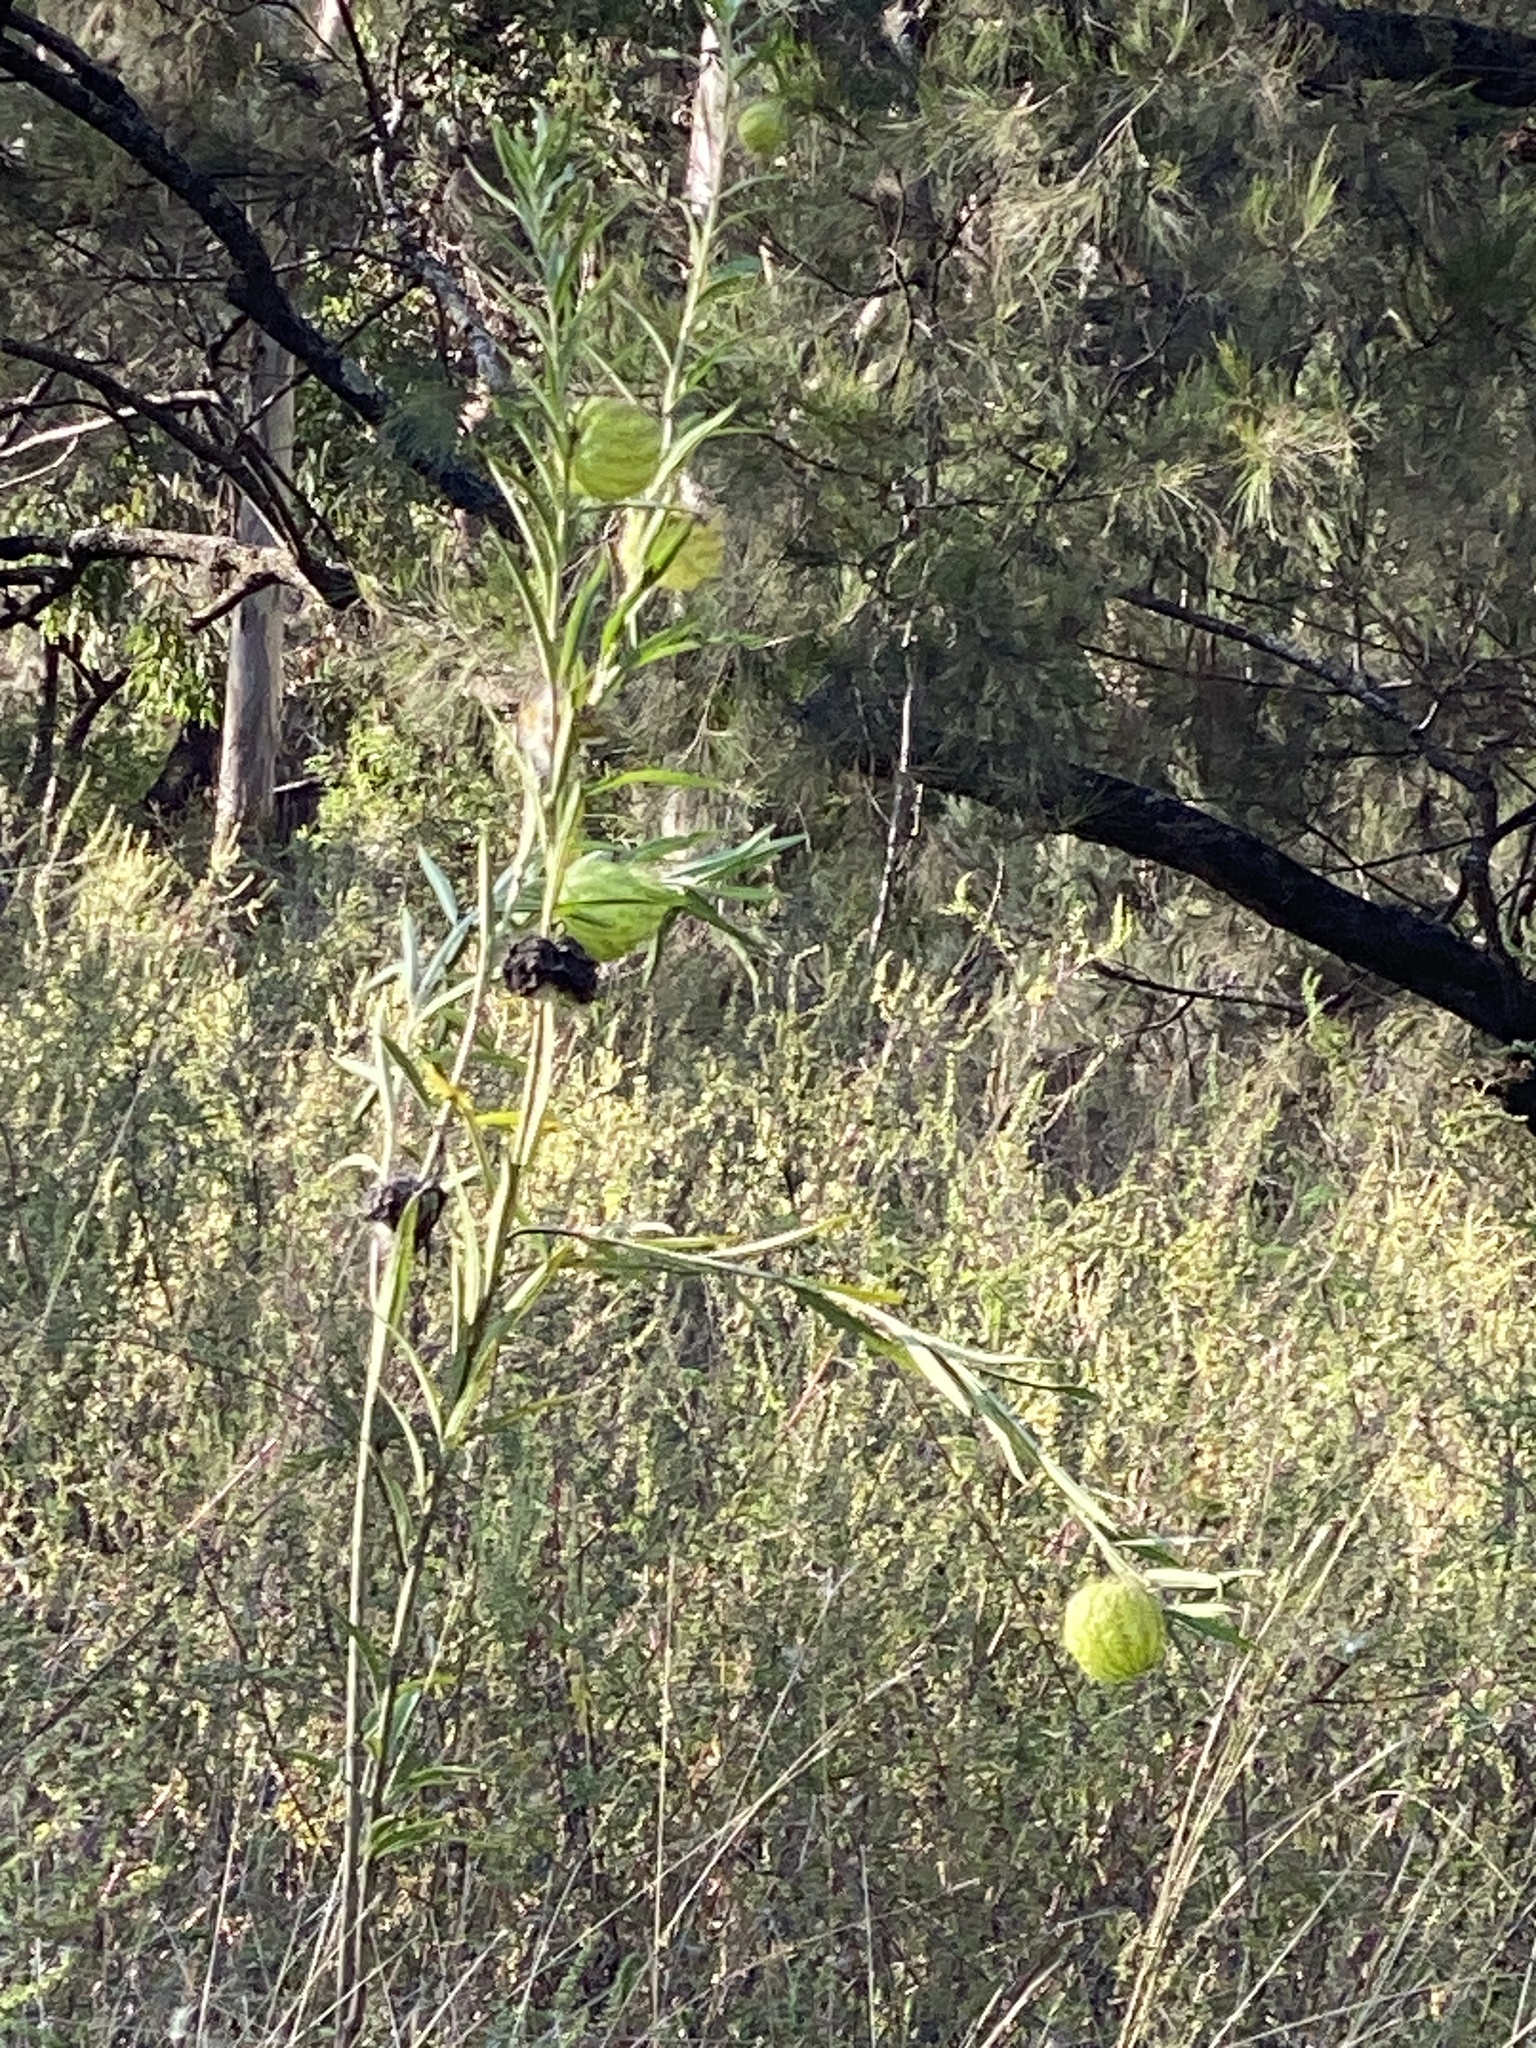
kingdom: Plantae
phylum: Tracheophyta
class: Magnoliopsida
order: Gentianales
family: Apocynaceae
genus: Gomphocarpus
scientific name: Gomphocarpus physocarpus
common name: Balloon cotton bush
